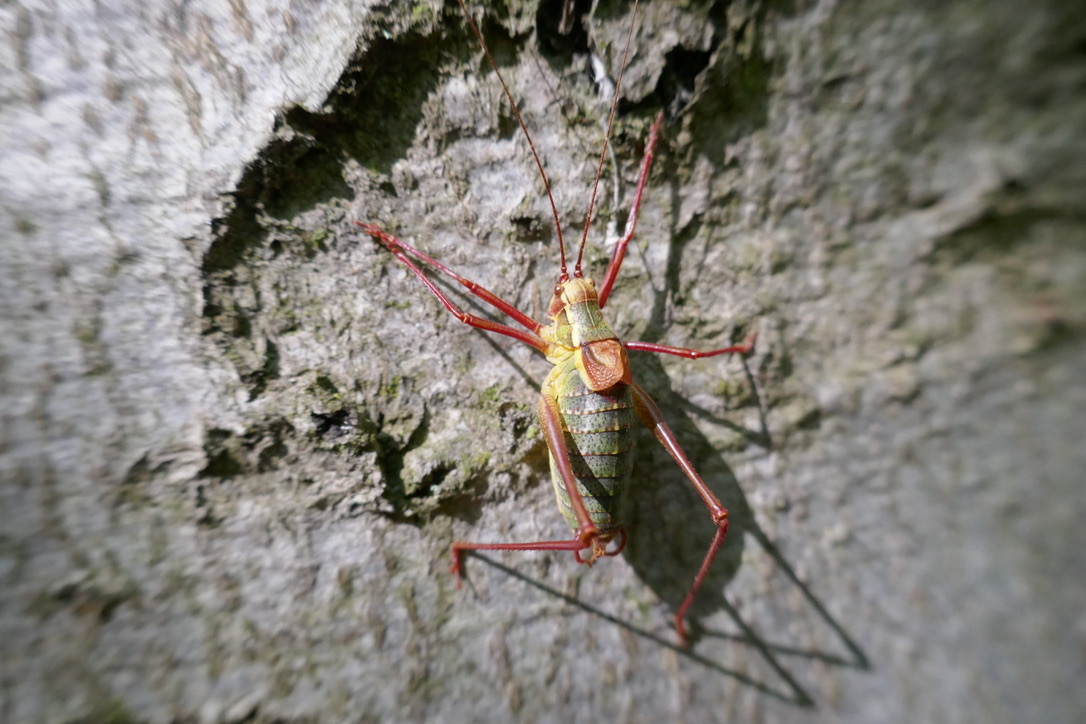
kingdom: Animalia
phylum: Arthropoda
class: Insecta
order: Orthoptera
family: Tettigoniidae
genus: Barbitistes
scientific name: Barbitistes serricauda
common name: Saw-tailed bush-cricket
